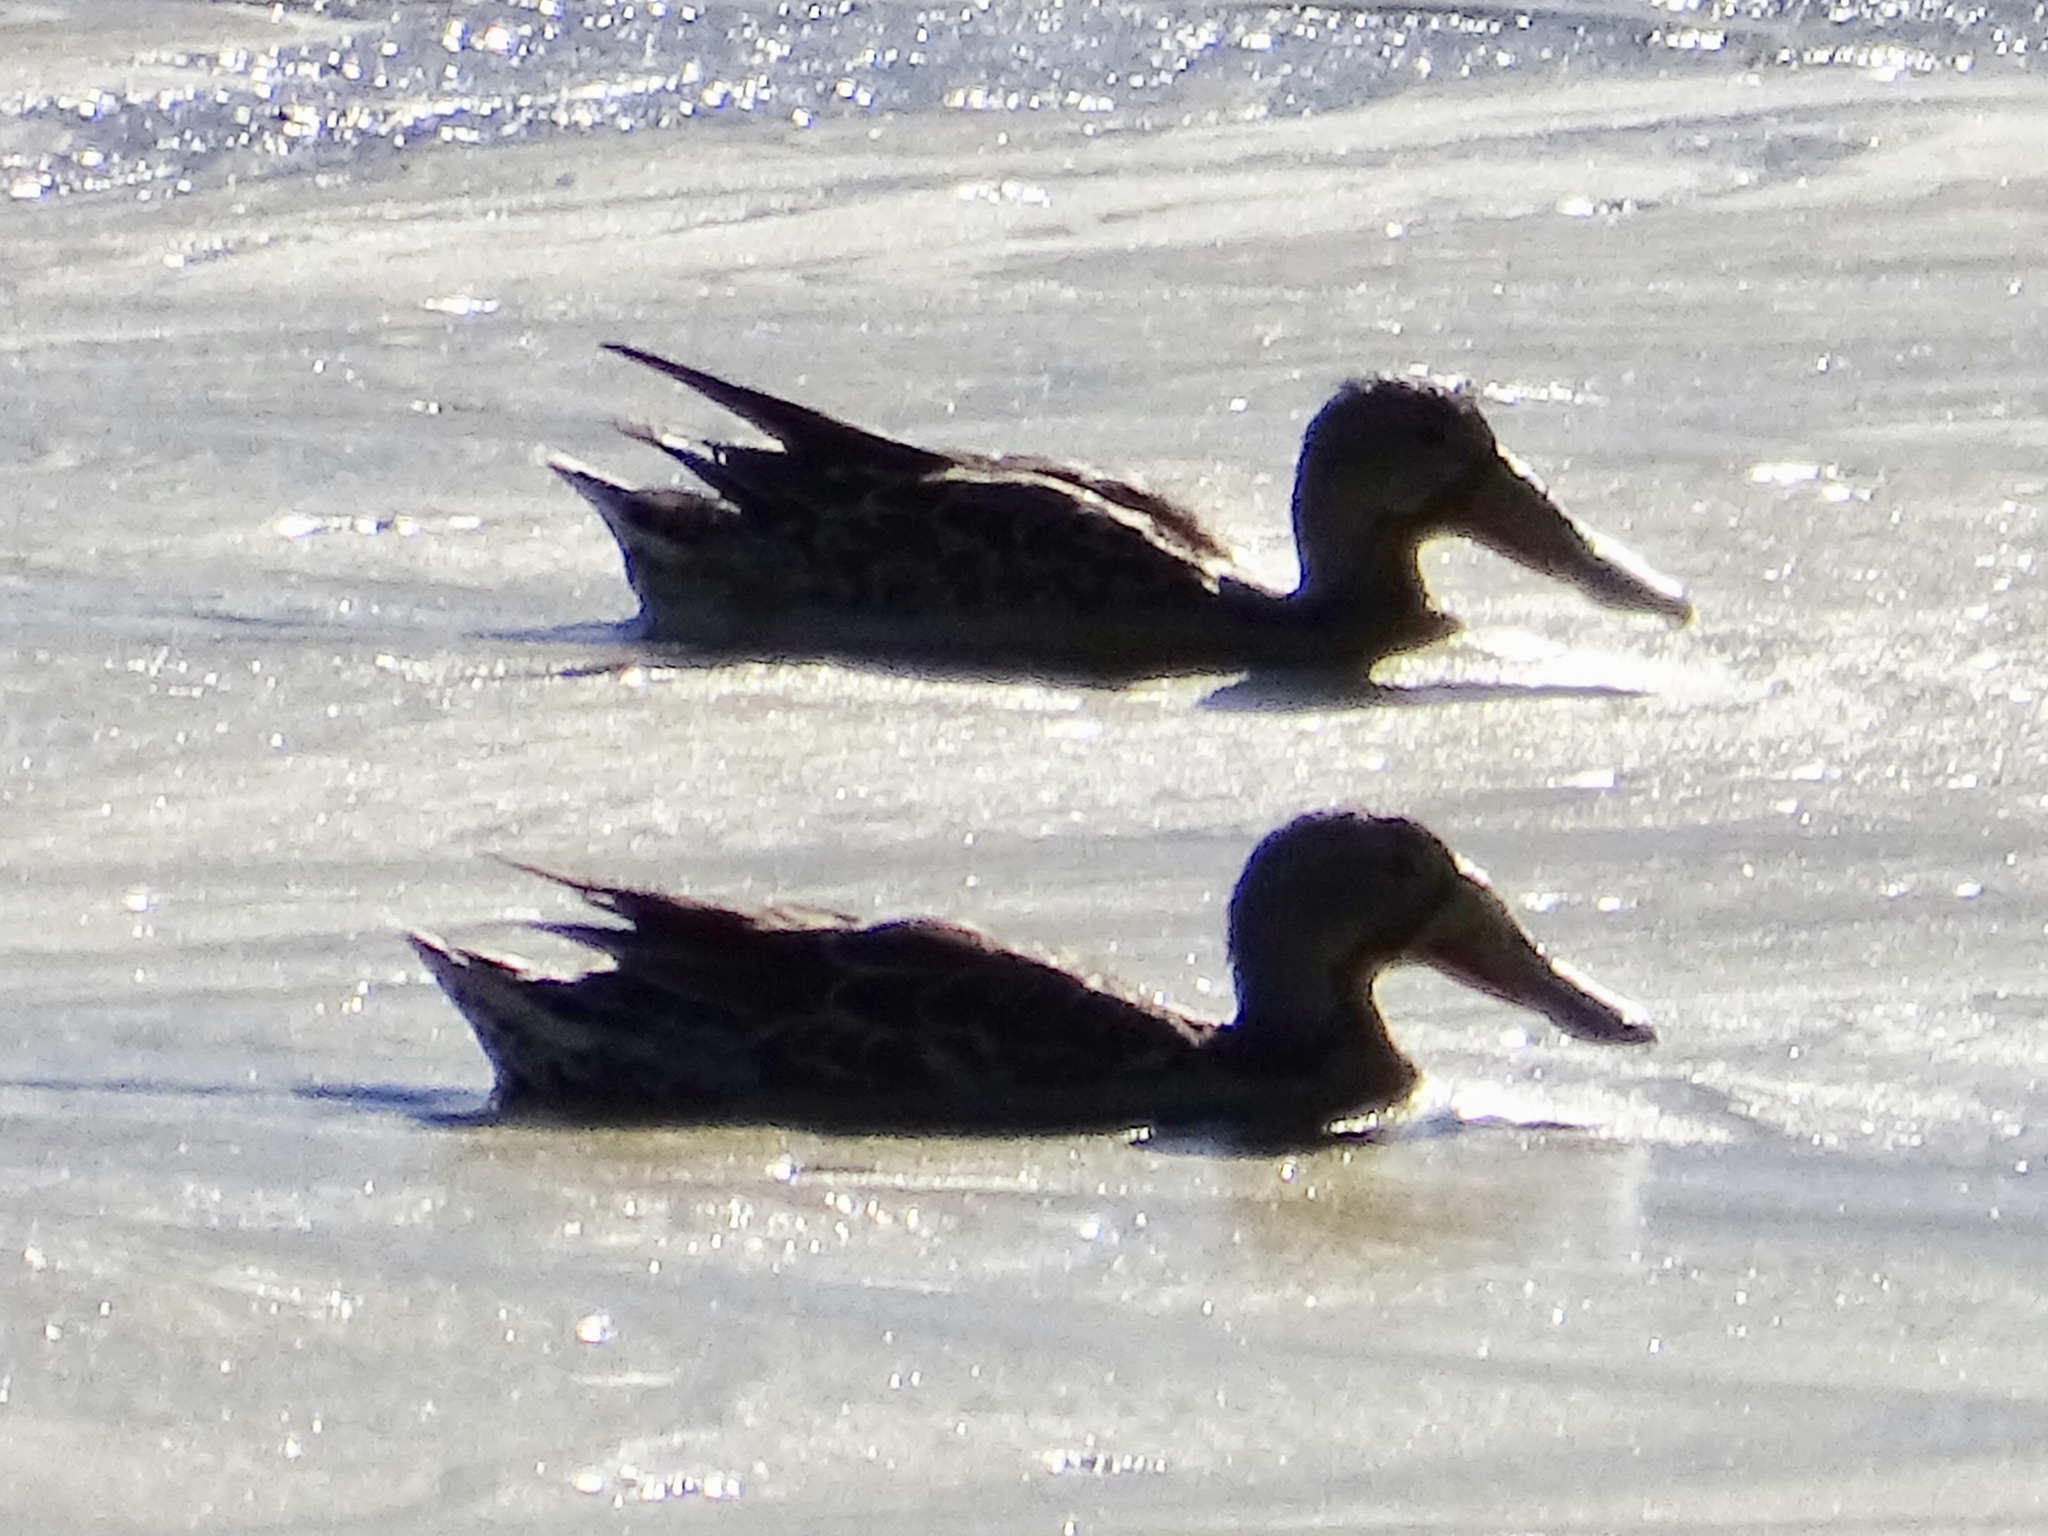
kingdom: Animalia
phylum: Chordata
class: Aves
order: Anseriformes
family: Anatidae
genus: Spatula
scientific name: Spatula clypeata
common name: Northern shoveler
